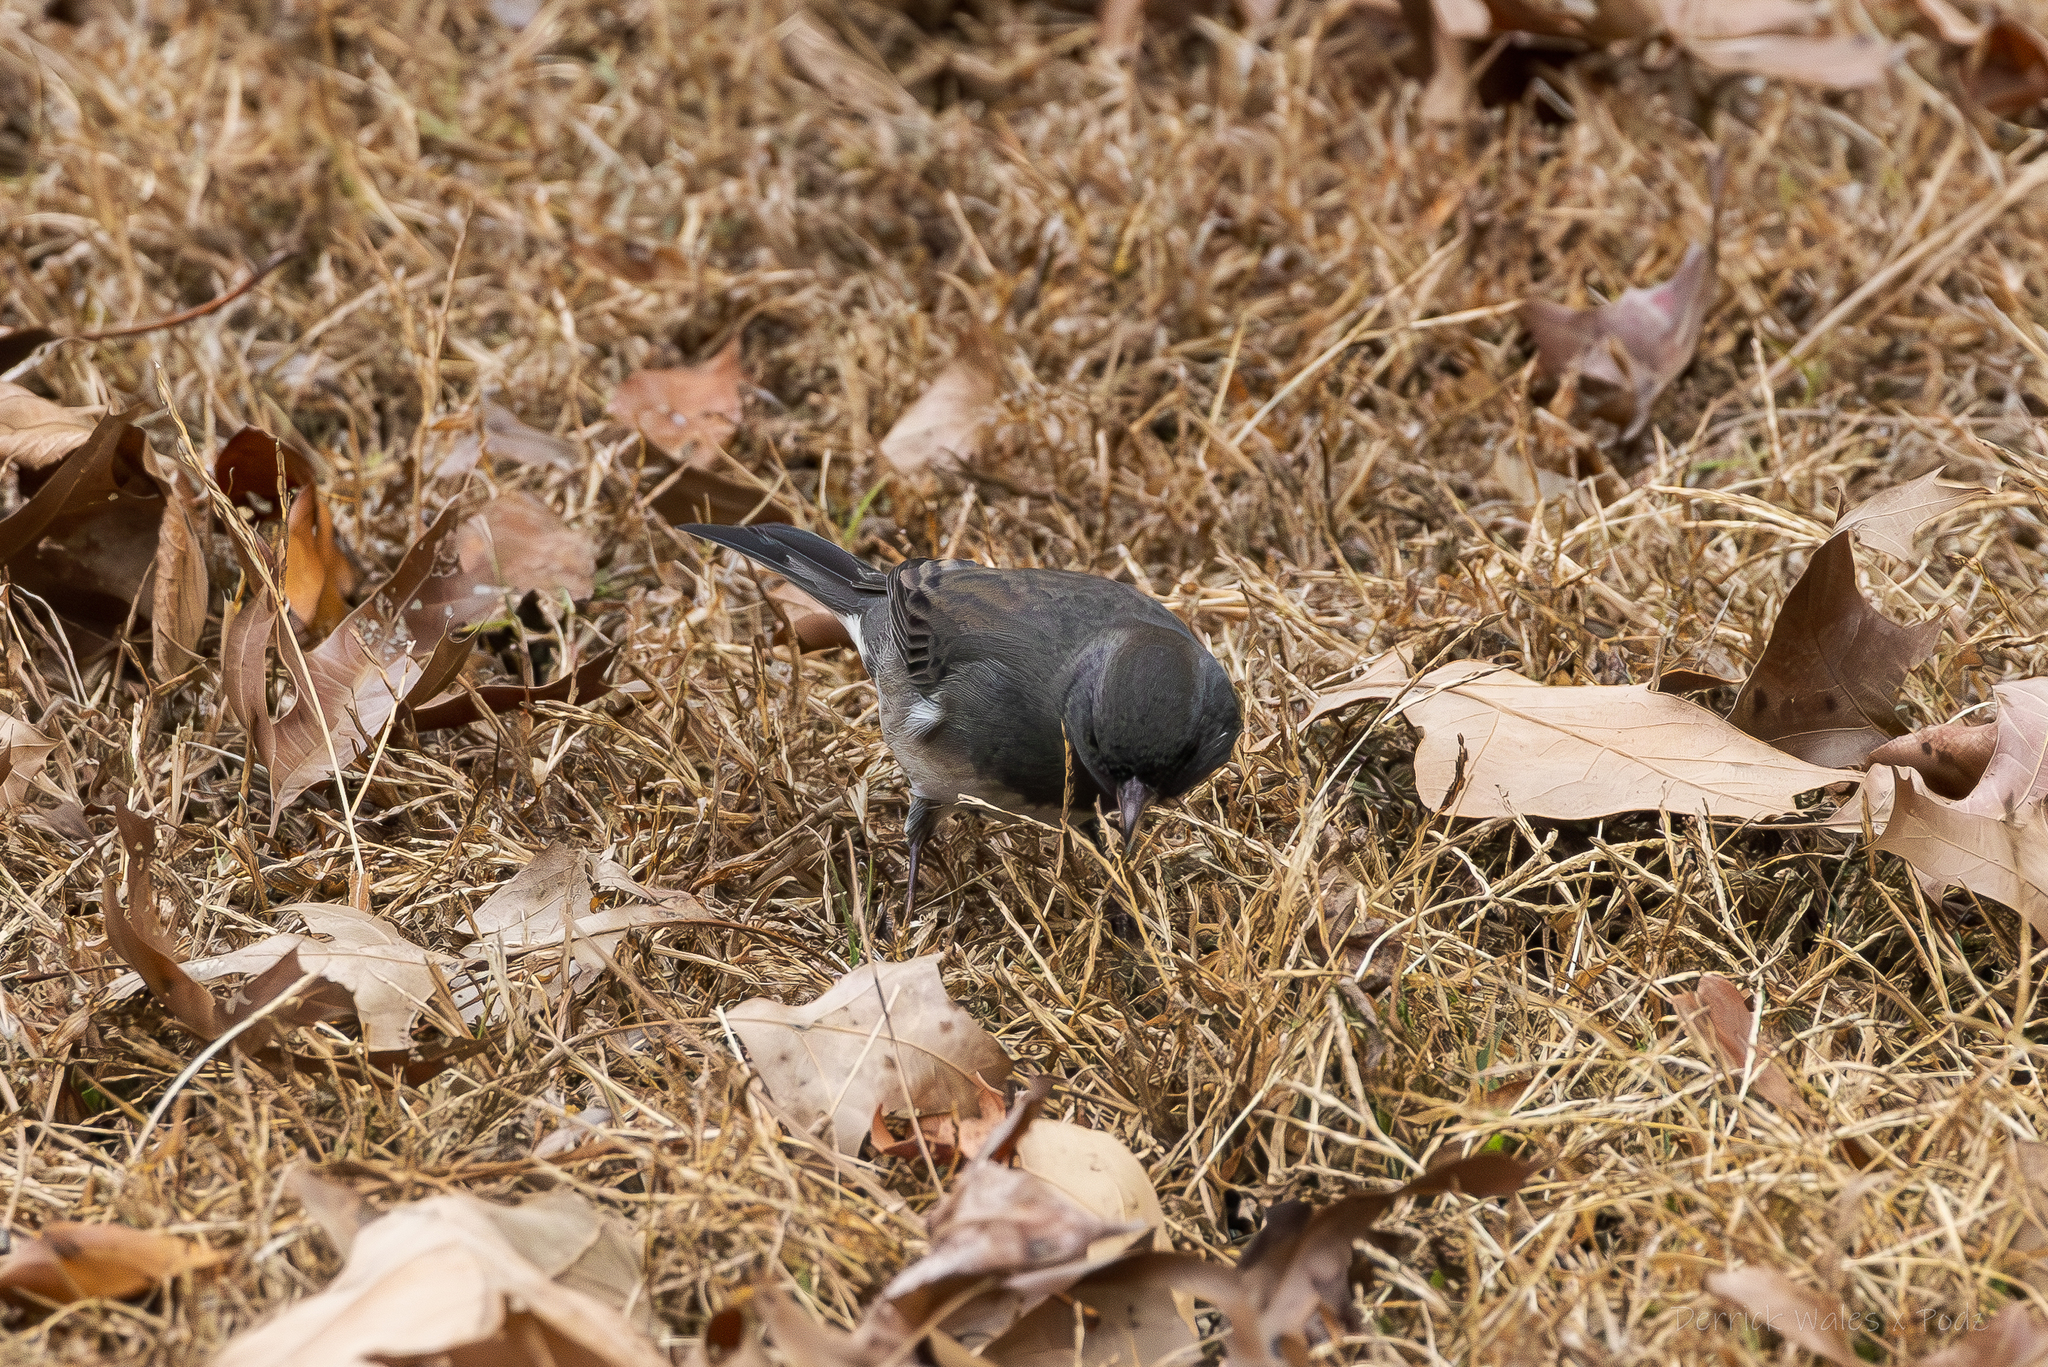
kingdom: Animalia
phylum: Chordata
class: Aves
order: Passeriformes
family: Passerellidae
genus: Junco
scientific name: Junco hyemalis
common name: Dark-eyed junco
